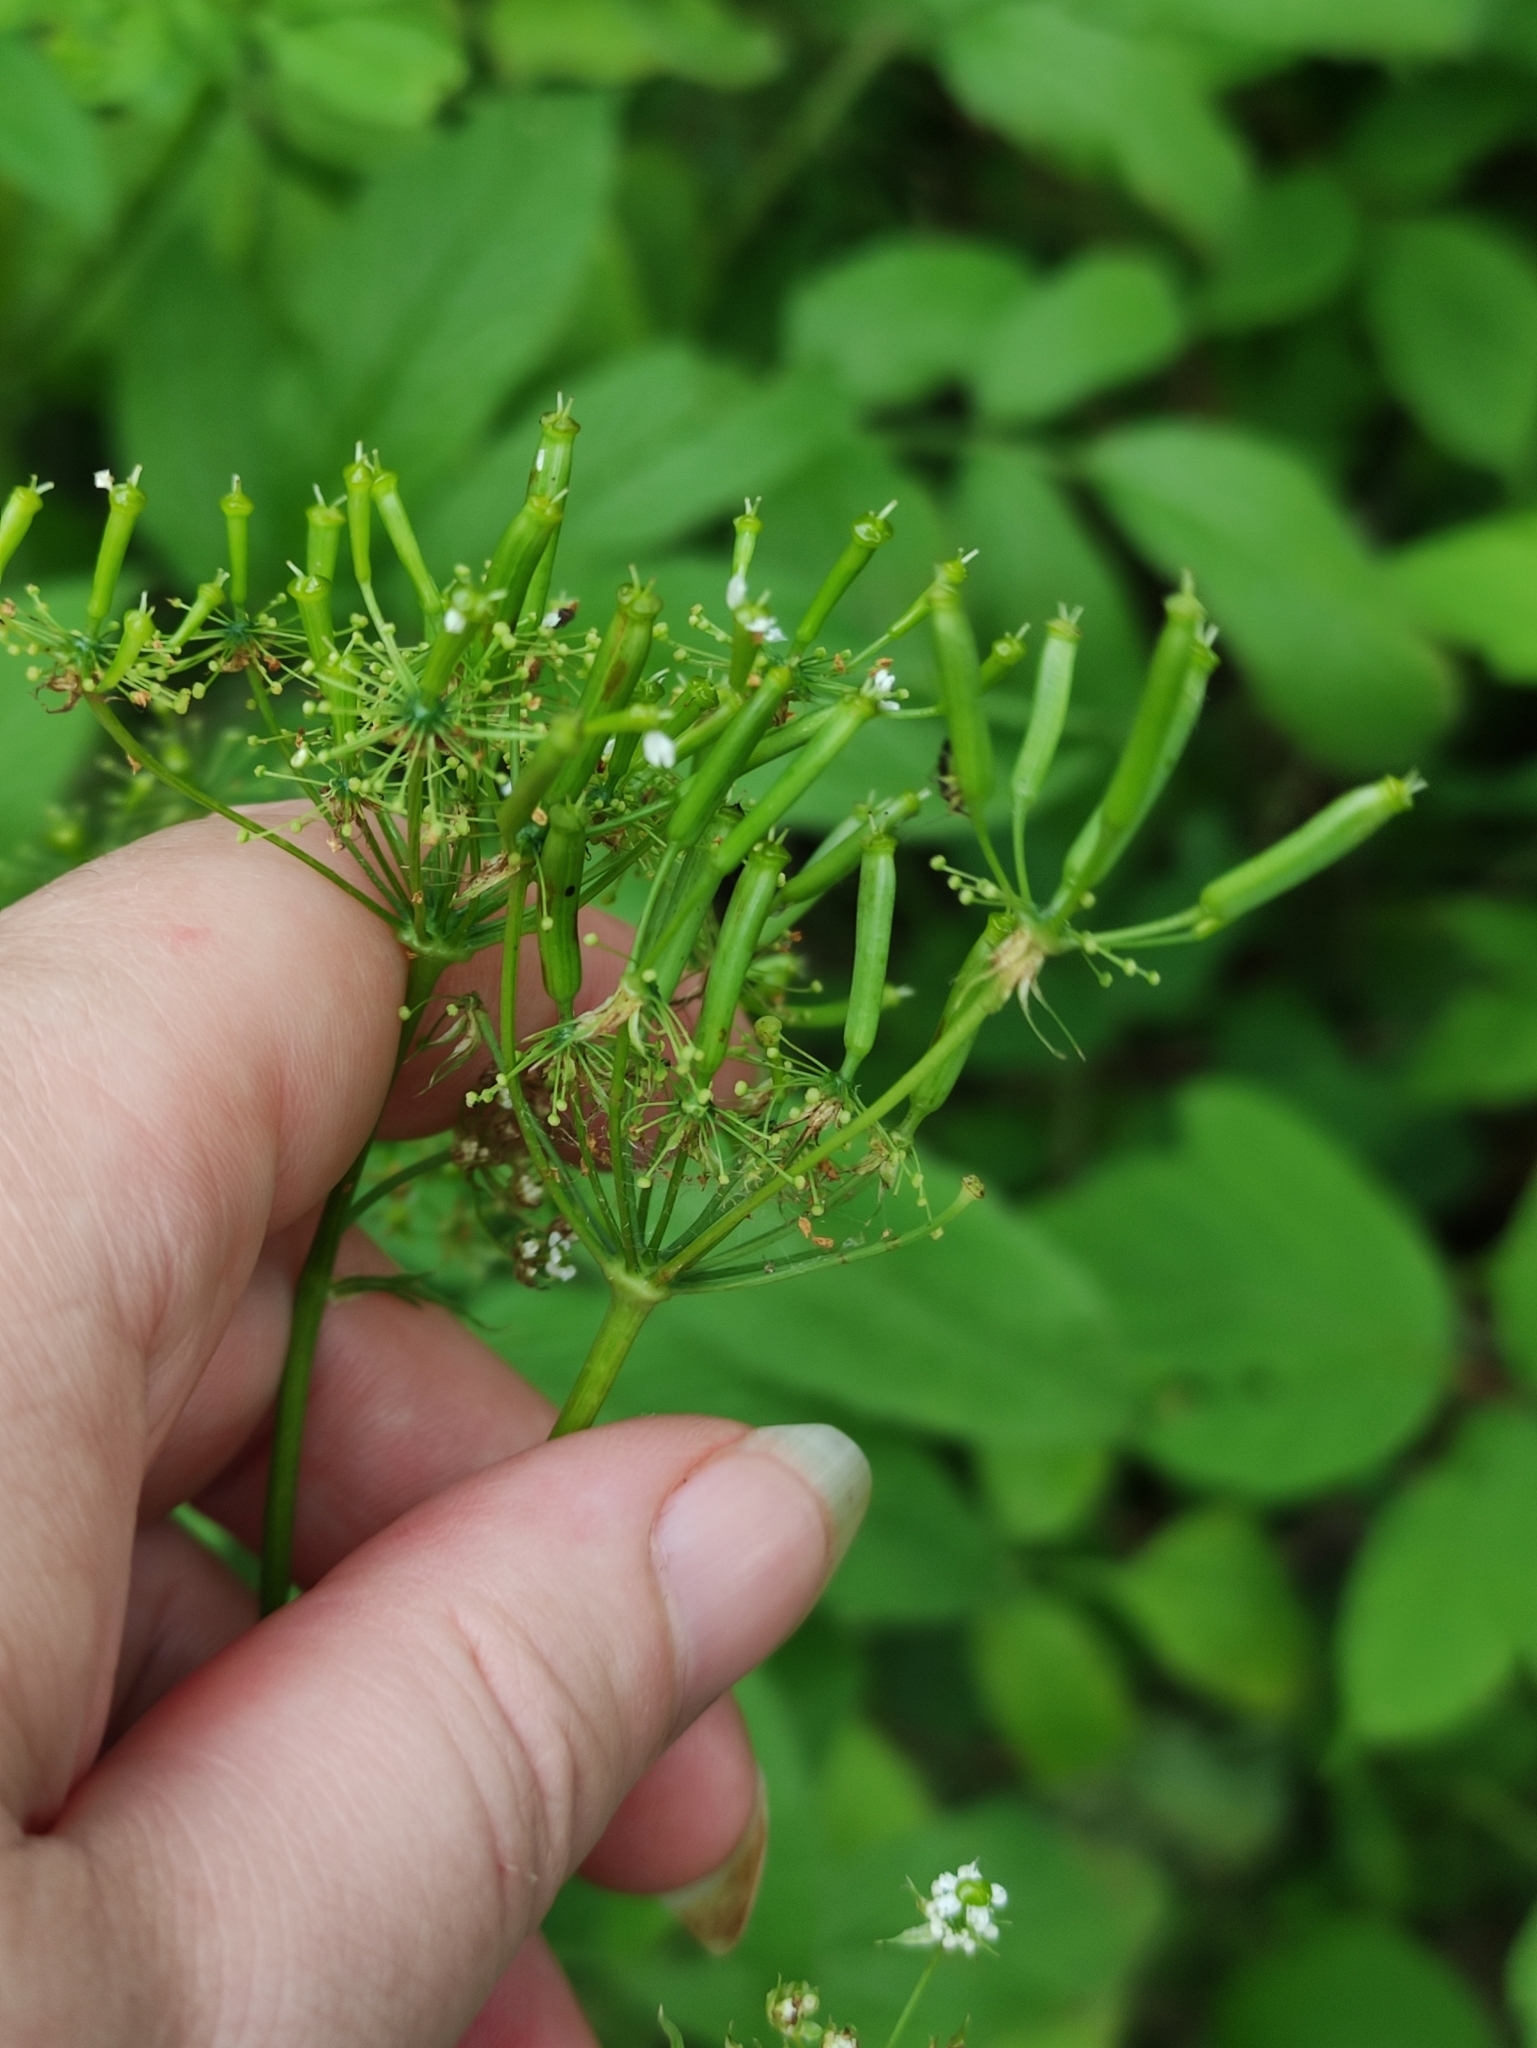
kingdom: Plantae
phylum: Tracheophyta
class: Magnoliopsida
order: Apiales
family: Apiaceae
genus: Chaerophyllum
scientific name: Chaerophyllum aromaticum
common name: Broadleaf chervil
